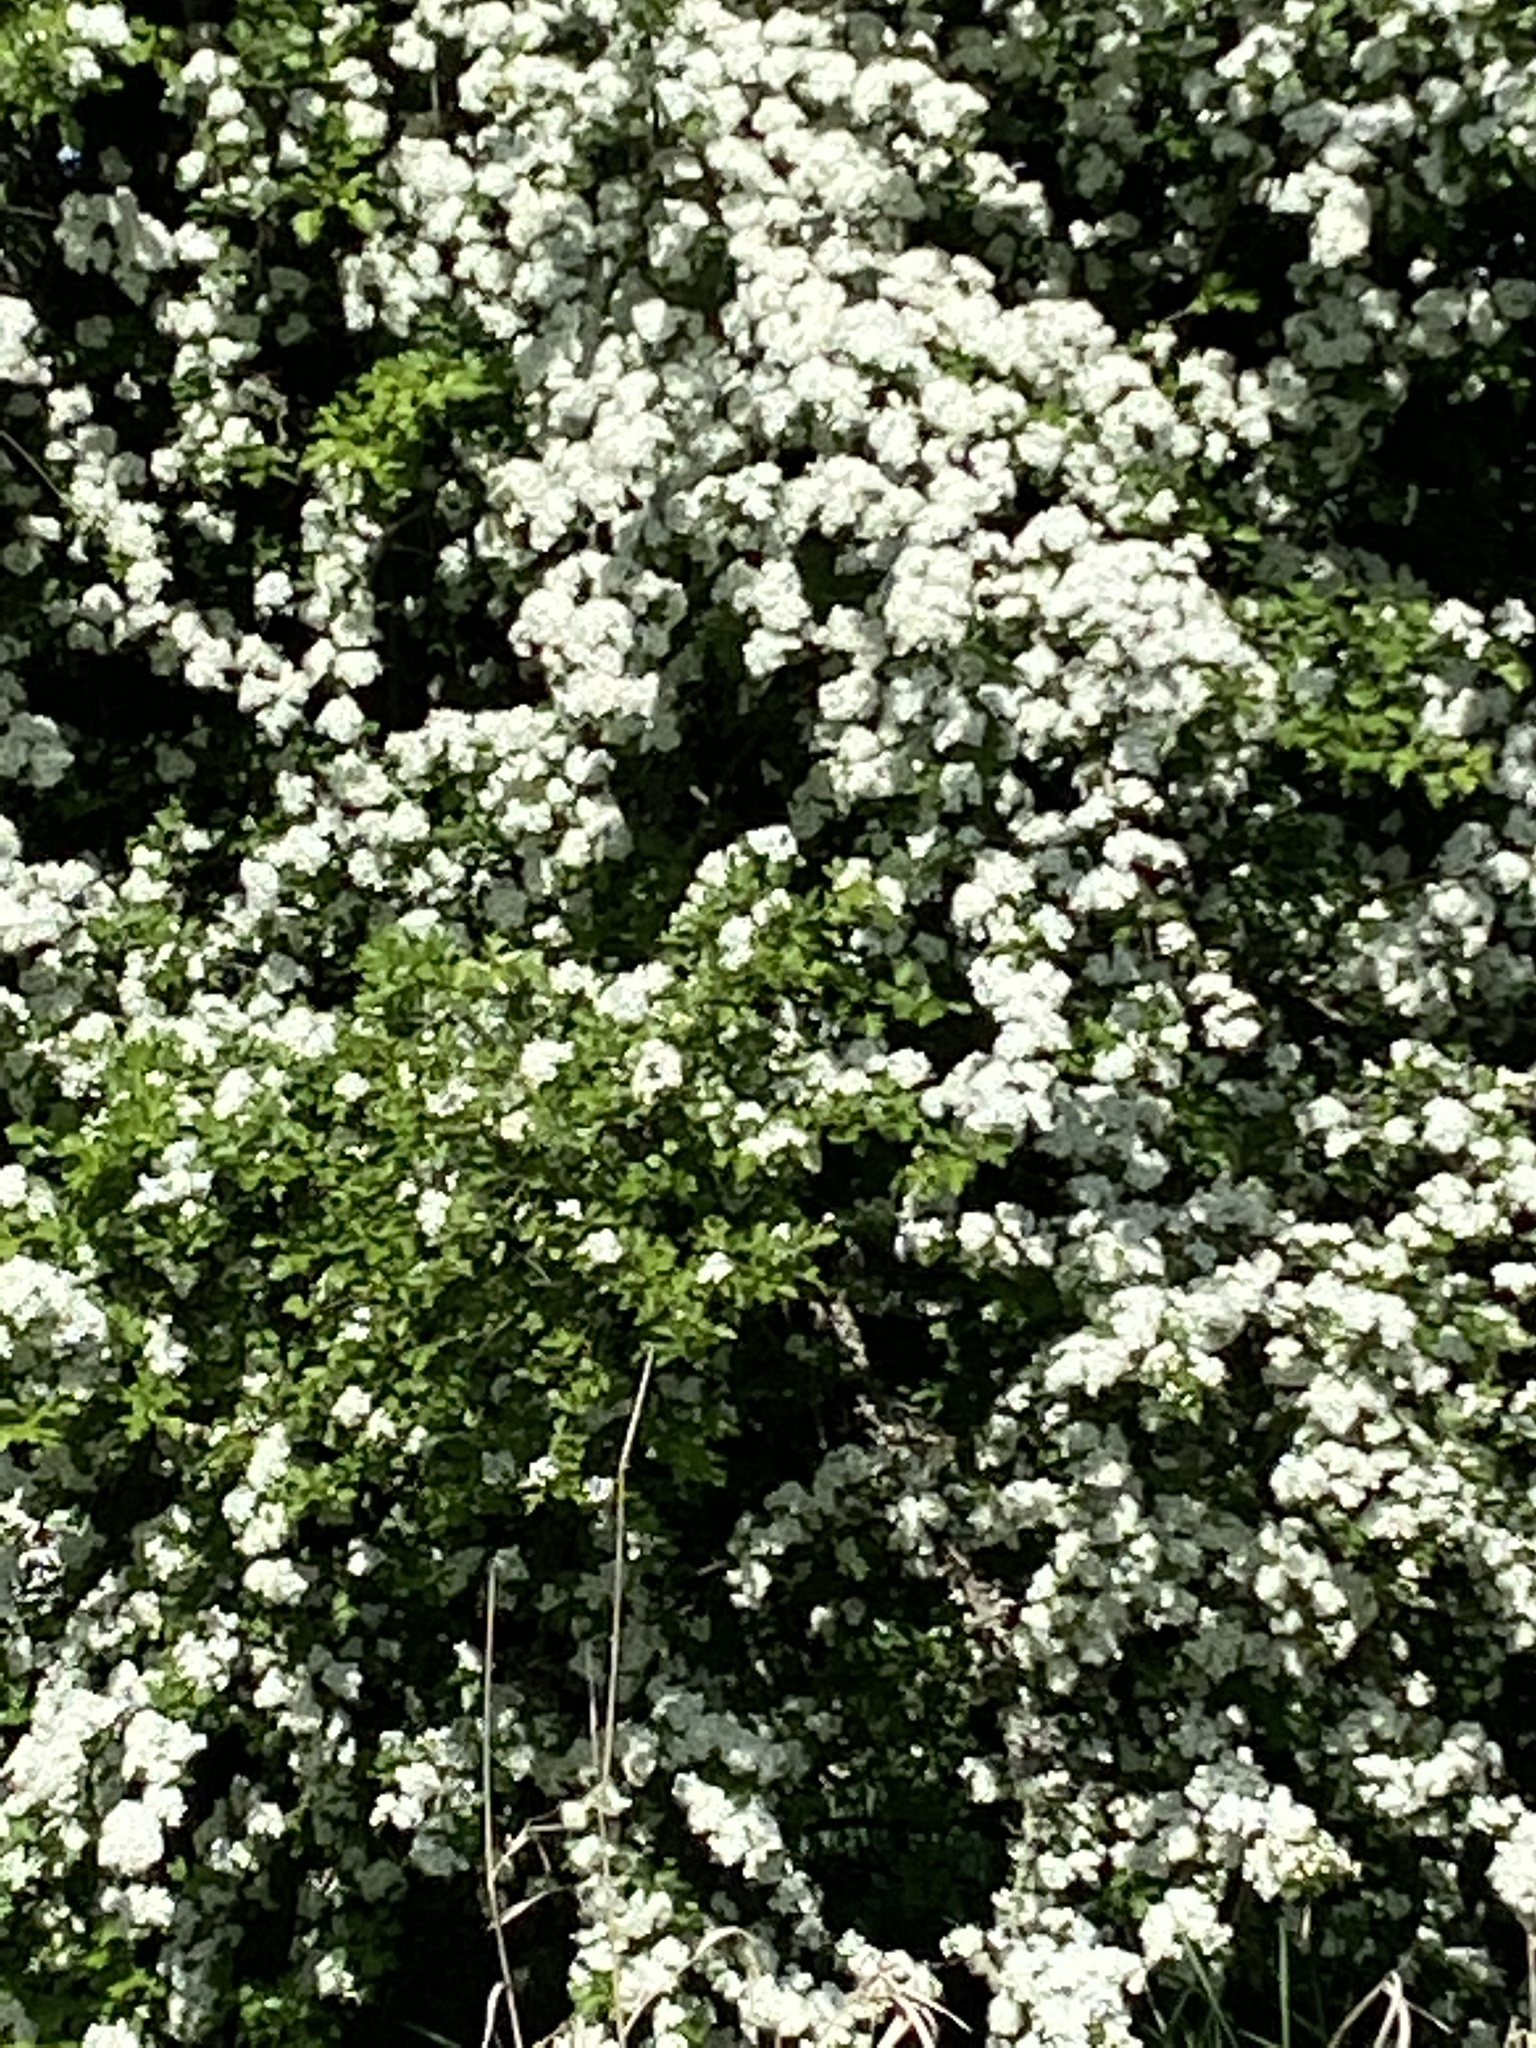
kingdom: Plantae
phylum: Tracheophyta
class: Magnoliopsida
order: Rosales
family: Rosaceae
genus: Crataegus
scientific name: Crataegus monogyna
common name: Hawthorn
